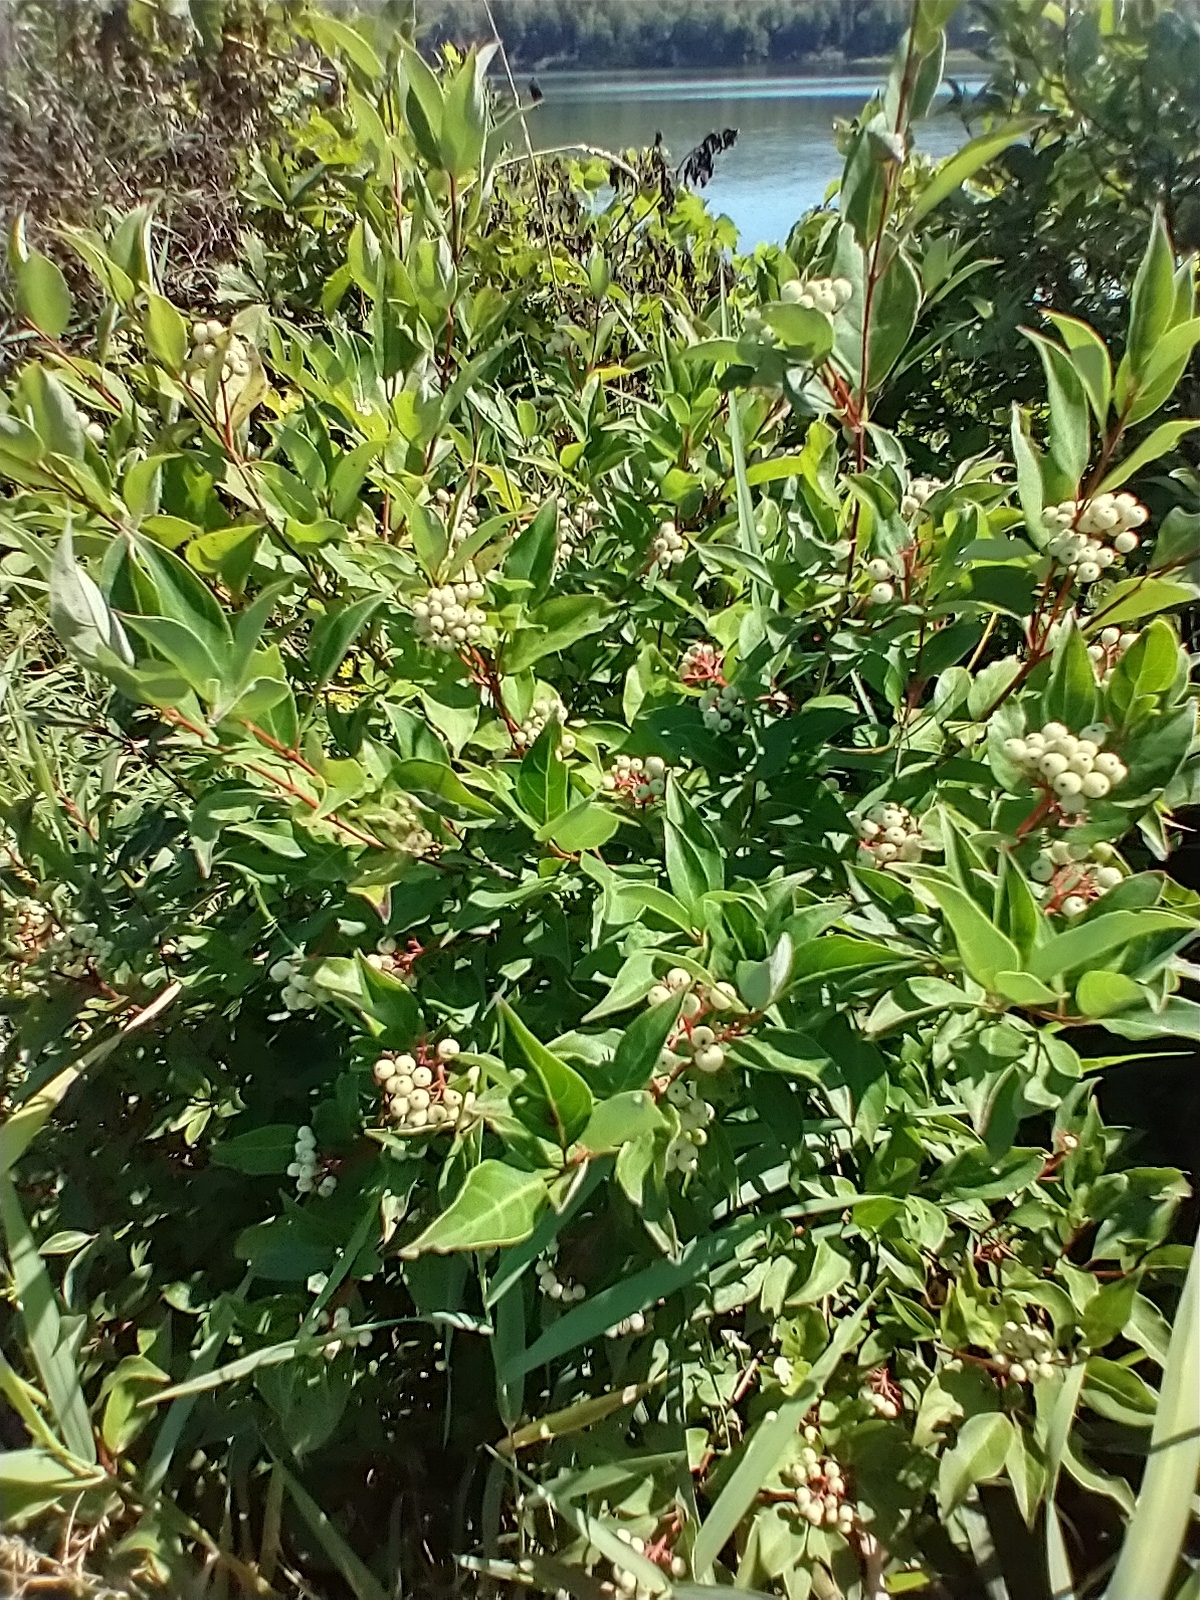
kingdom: Plantae
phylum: Tracheophyta
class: Magnoliopsida
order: Cornales
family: Cornaceae
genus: Cornus
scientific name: Cornus racemosa
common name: Panicled dogwood
